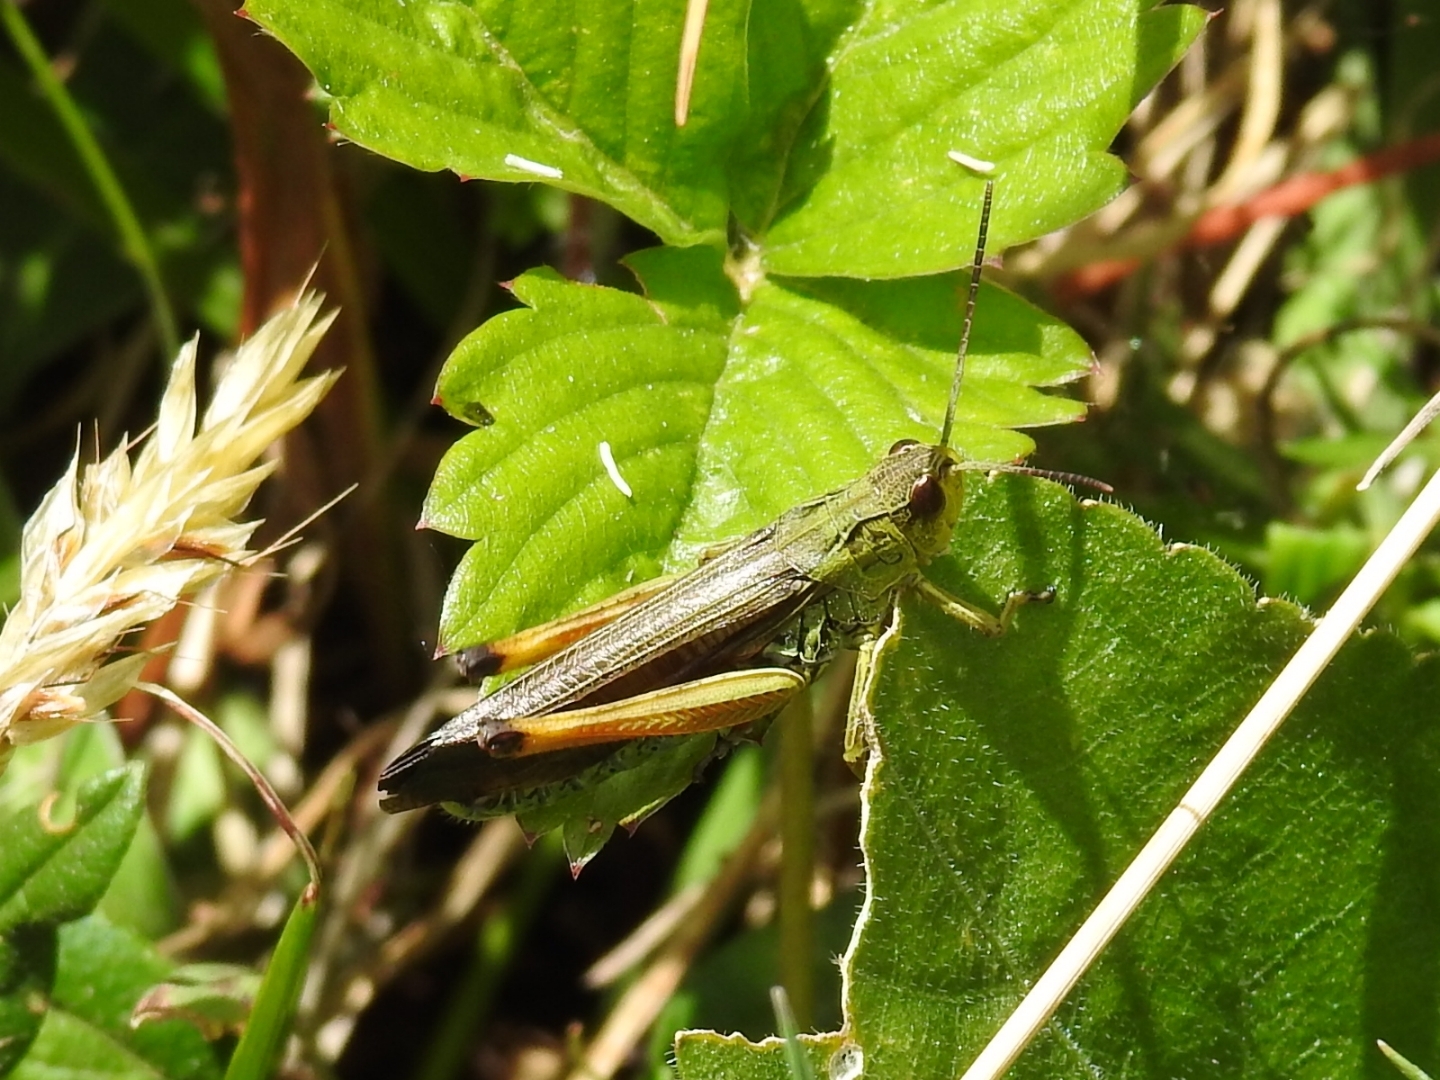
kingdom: Animalia
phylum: Arthropoda
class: Insecta
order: Orthoptera
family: Acrididae
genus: Stauroderus
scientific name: Stauroderus scalaris
